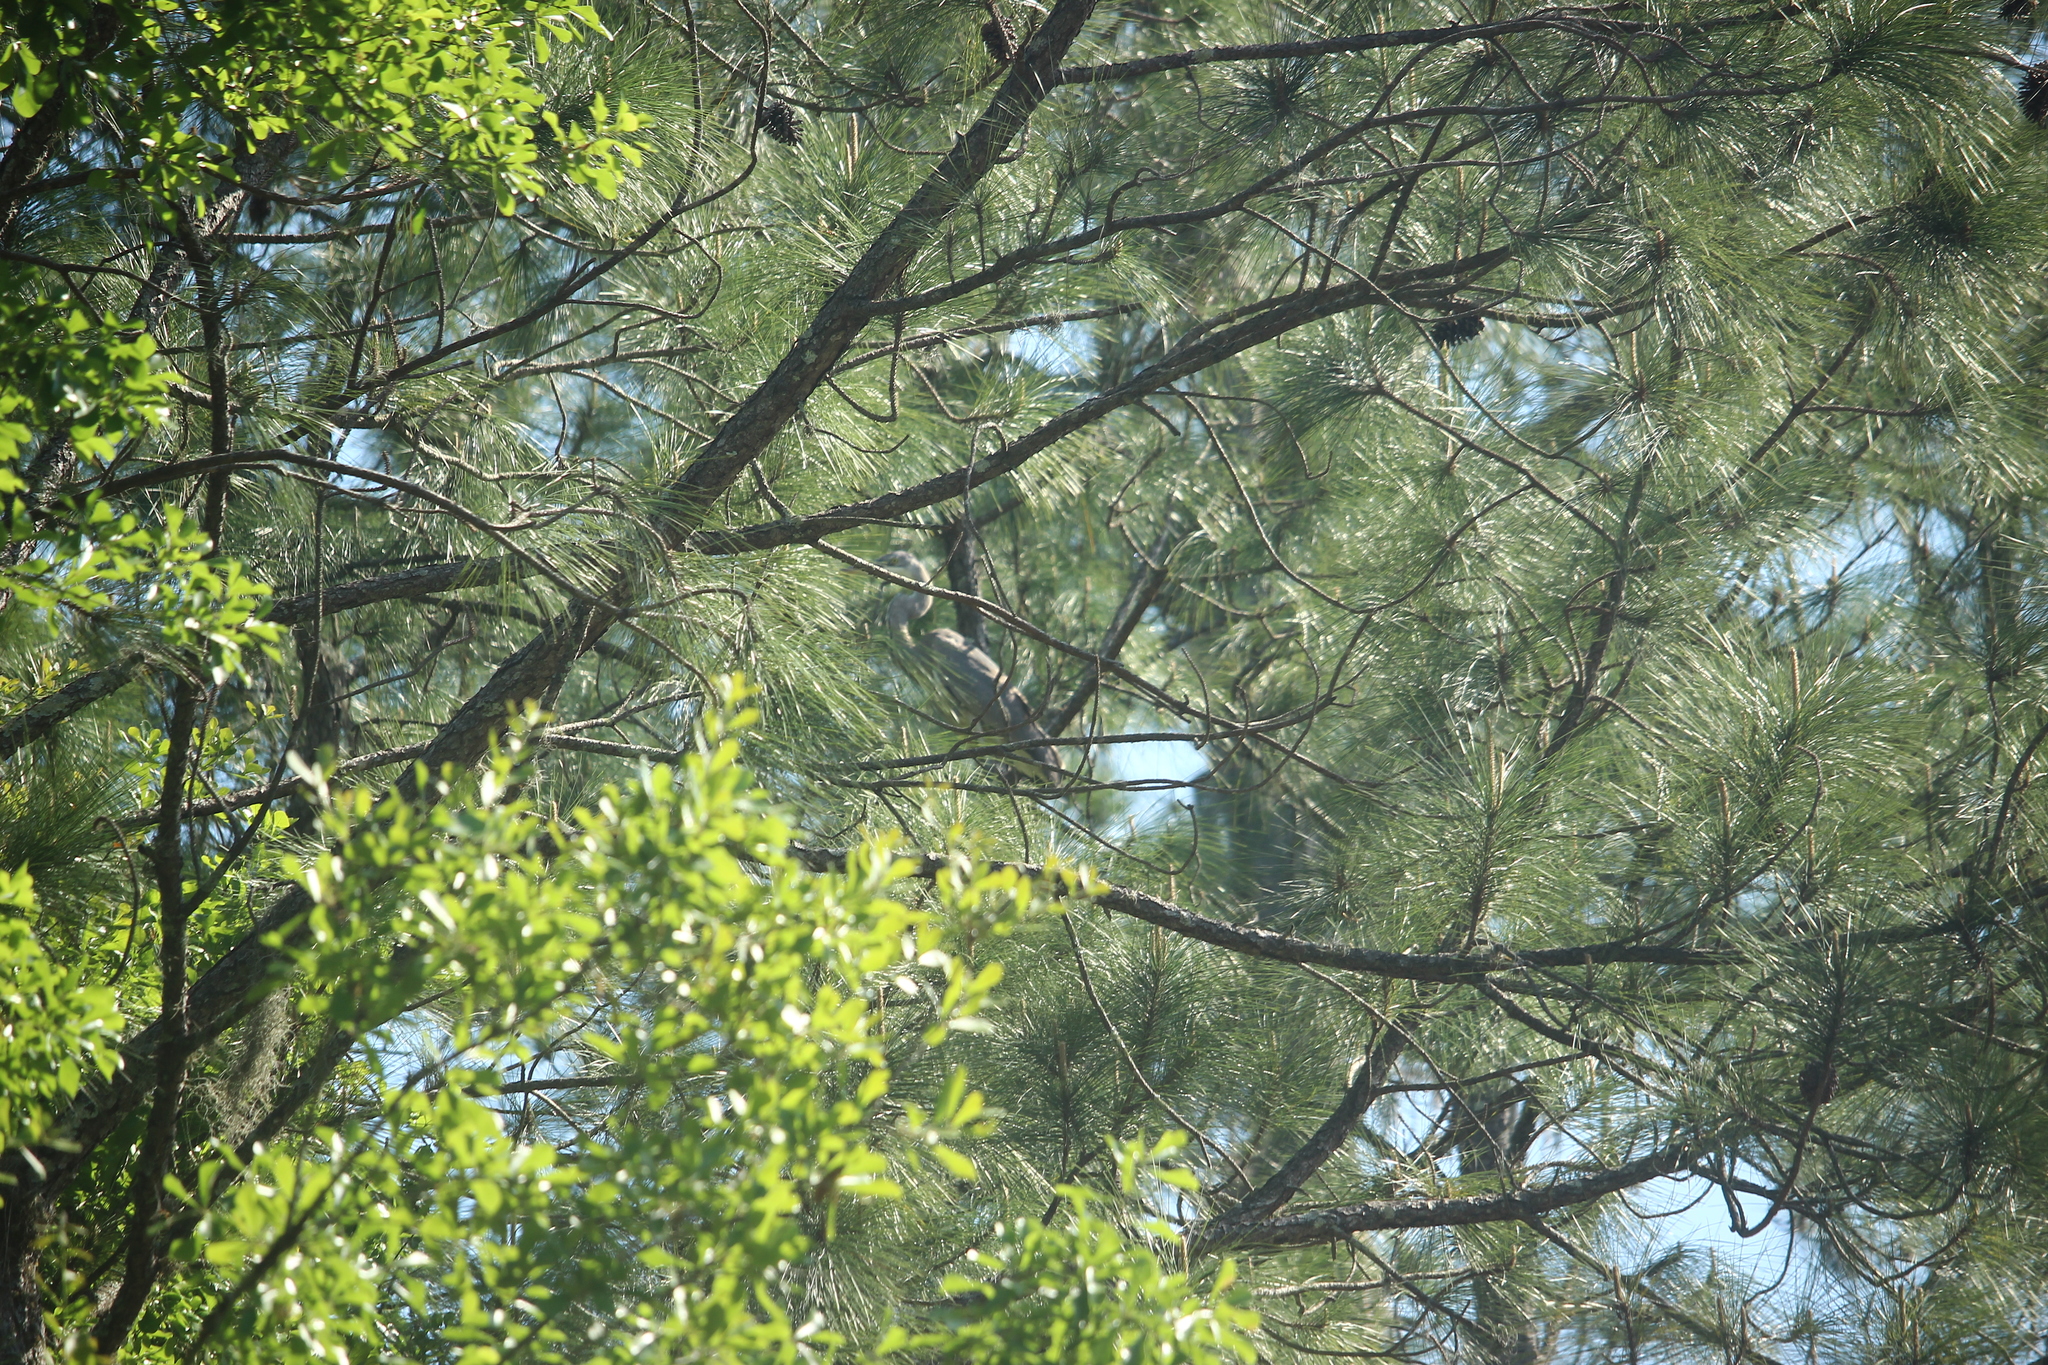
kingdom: Animalia
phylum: Chordata
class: Aves
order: Pelecaniformes
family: Ardeidae
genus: Ardea
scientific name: Ardea herodias
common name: Great blue heron
